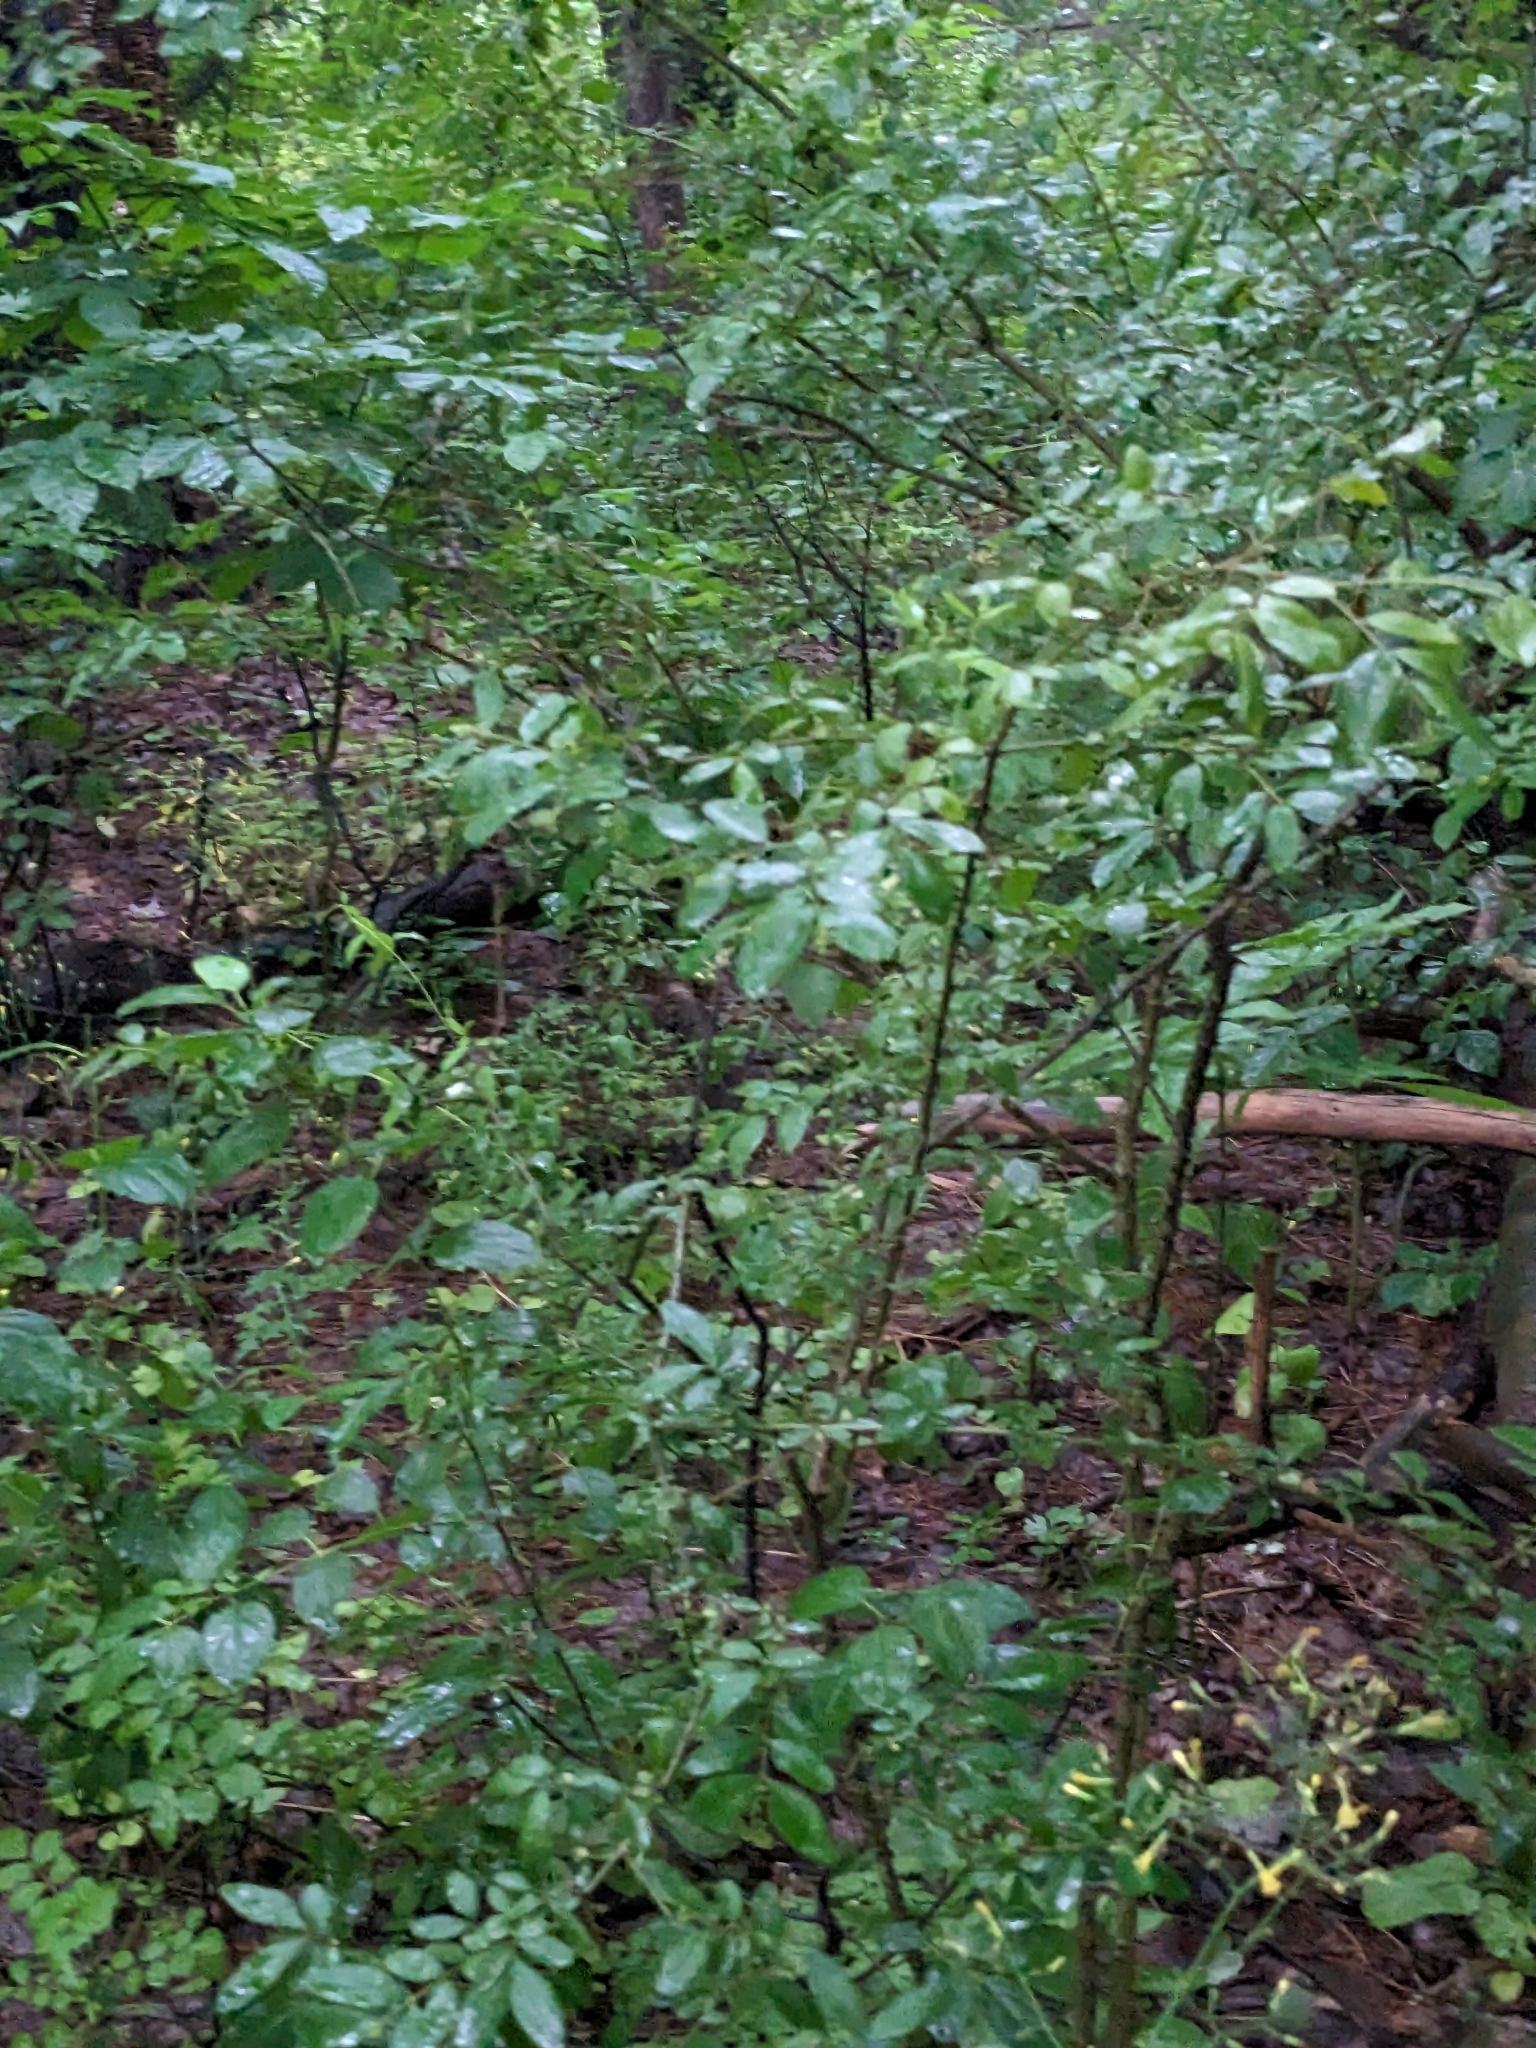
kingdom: Plantae
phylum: Tracheophyta
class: Magnoliopsida
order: Lamiales
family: Oleaceae
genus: Ligustrum
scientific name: Ligustrum obtusifolium
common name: Border privet
